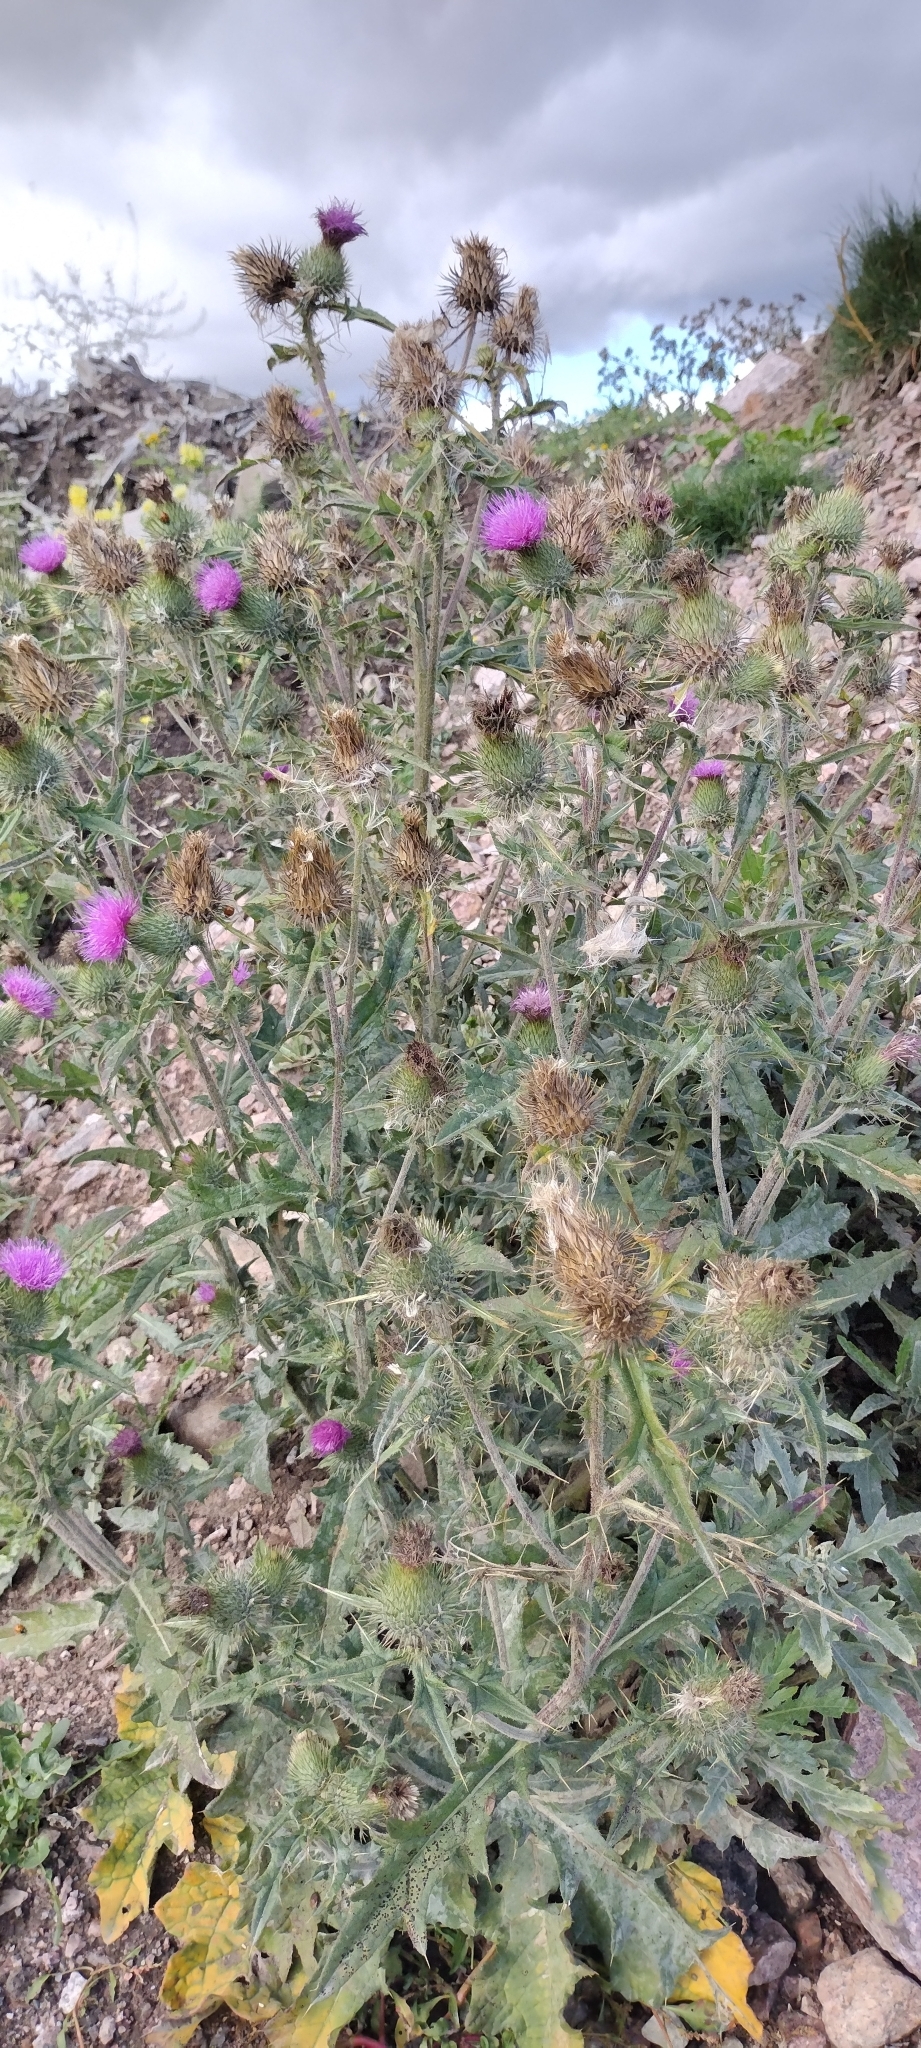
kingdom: Plantae
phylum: Tracheophyta
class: Magnoliopsida
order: Asterales
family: Asteraceae
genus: Cirsium
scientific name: Cirsium vulgare
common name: Bull thistle
